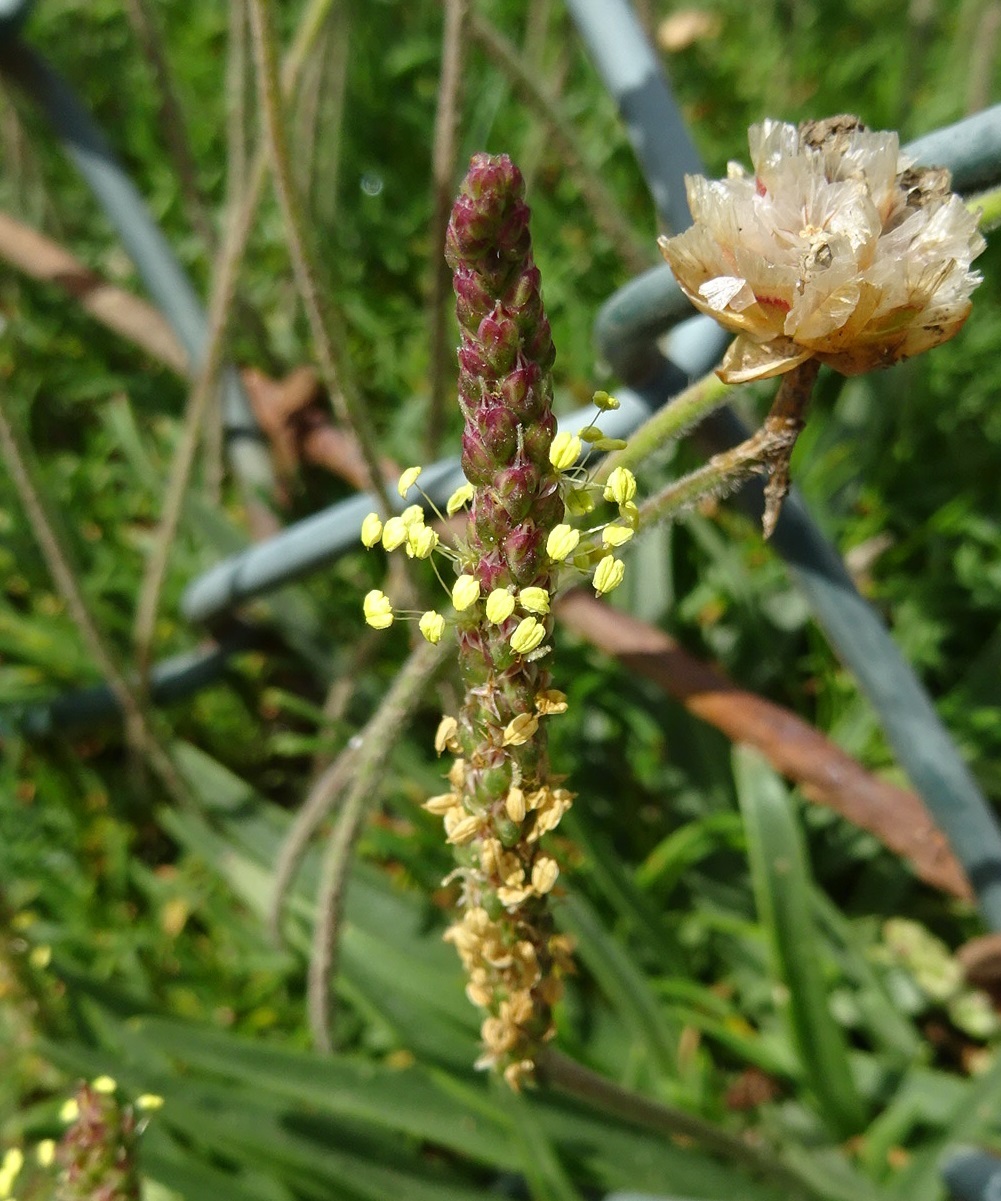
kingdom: Plantae
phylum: Tracheophyta
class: Magnoliopsida
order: Lamiales
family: Plantaginaceae
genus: Plantago
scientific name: Plantago maritima
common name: Sea plantain
